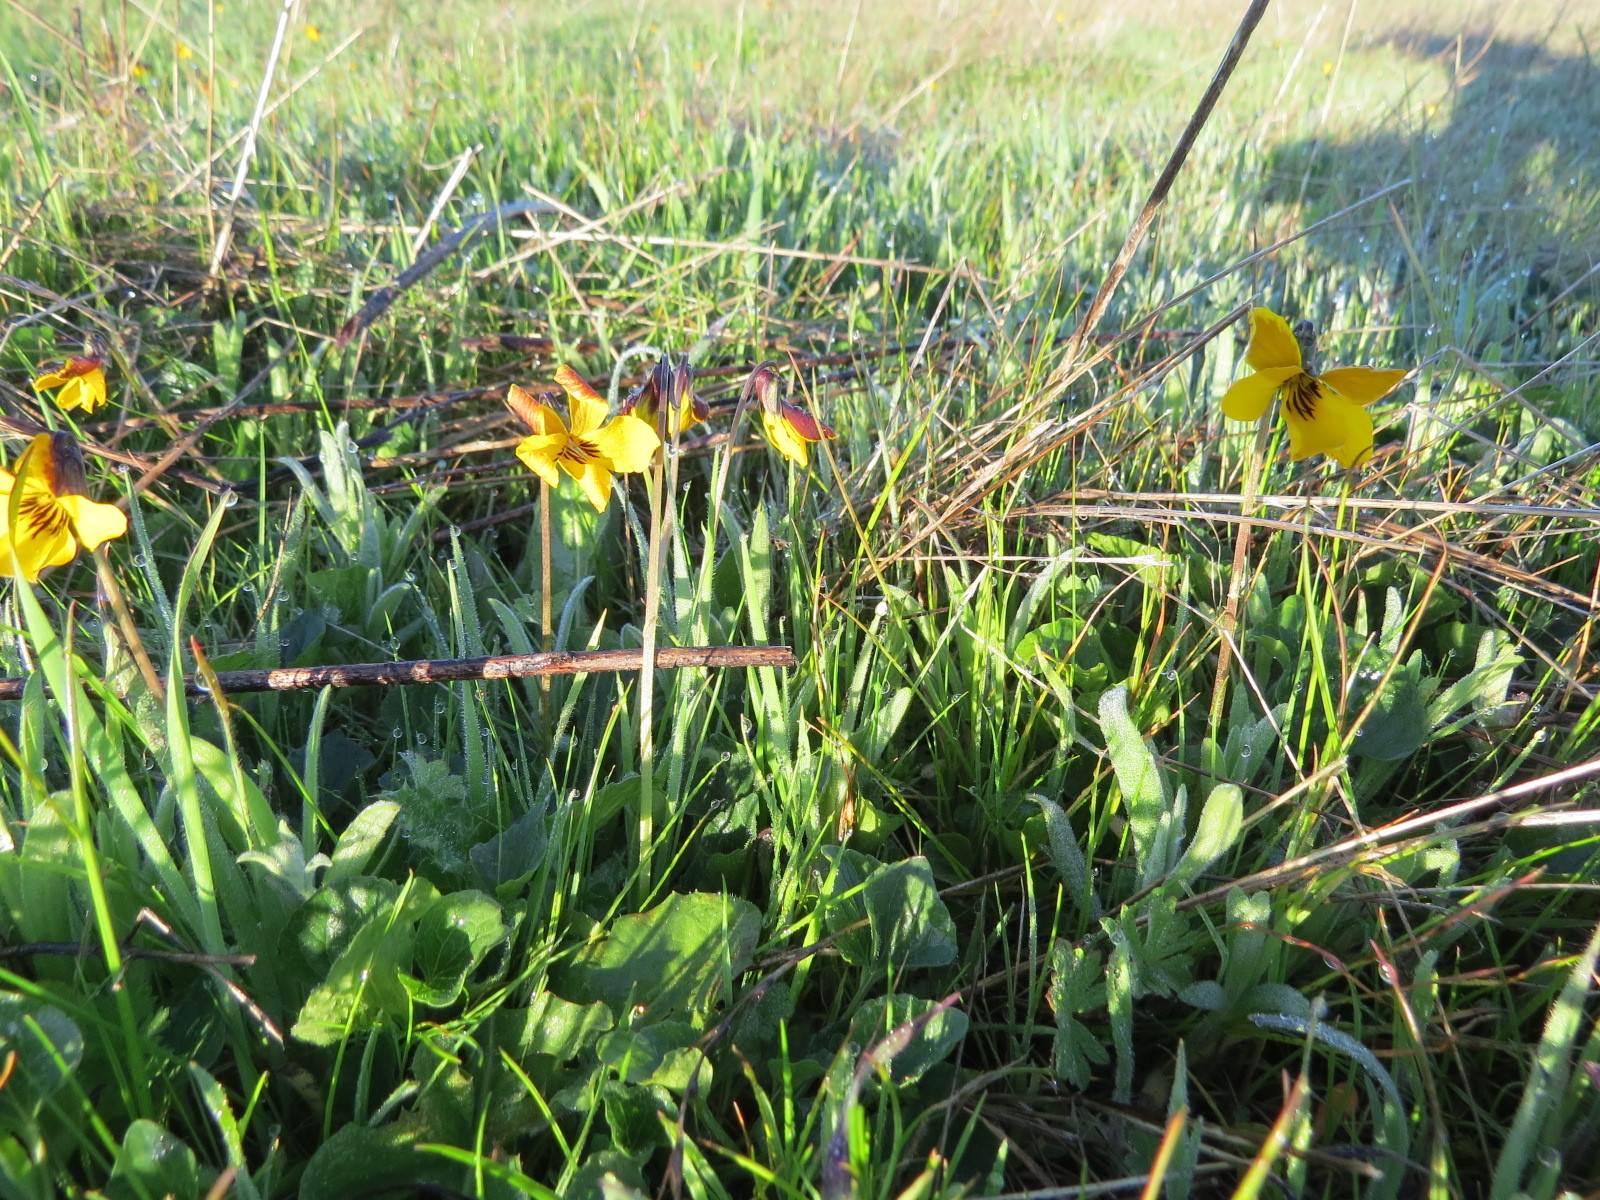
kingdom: Plantae
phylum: Tracheophyta
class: Magnoliopsida
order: Malpighiales
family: Violaceae
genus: Viola
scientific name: Viola pedunculata
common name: California golden violet
